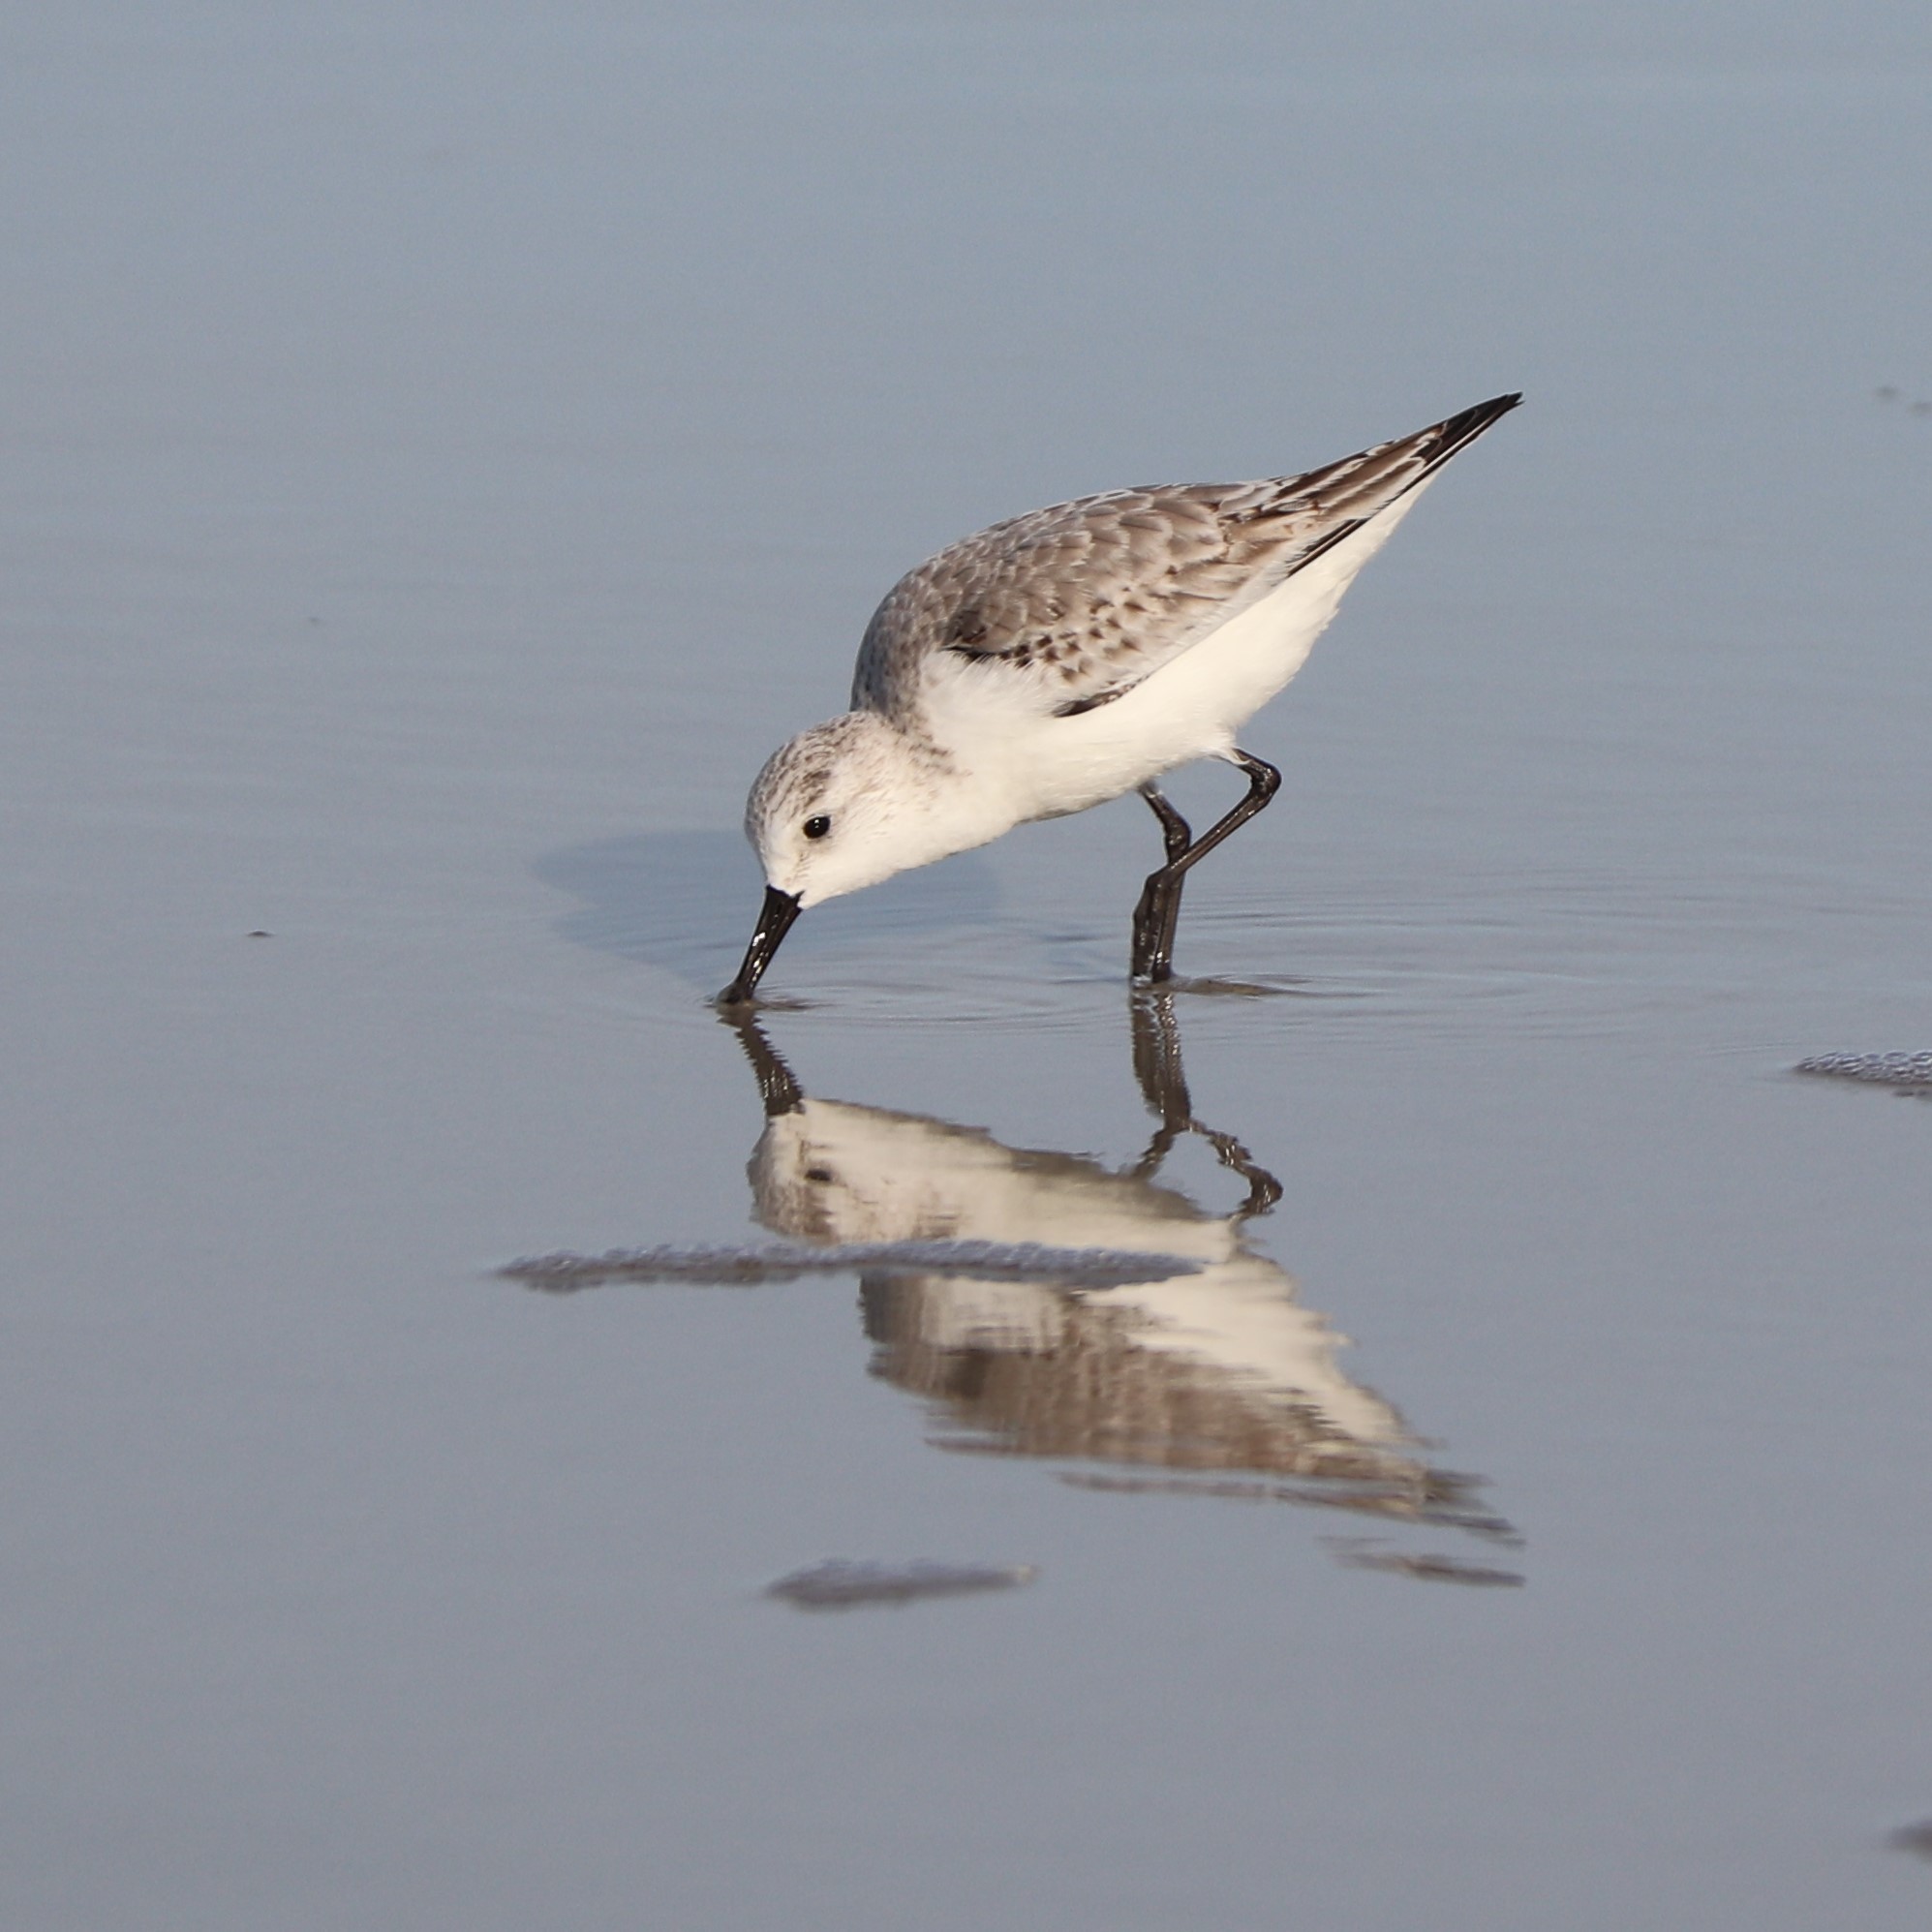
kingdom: Animalia
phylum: Chordata
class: Aves
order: Charadriiformes
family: Scolopacidae
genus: Calidris
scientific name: Calidris alba
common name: Sanderling
